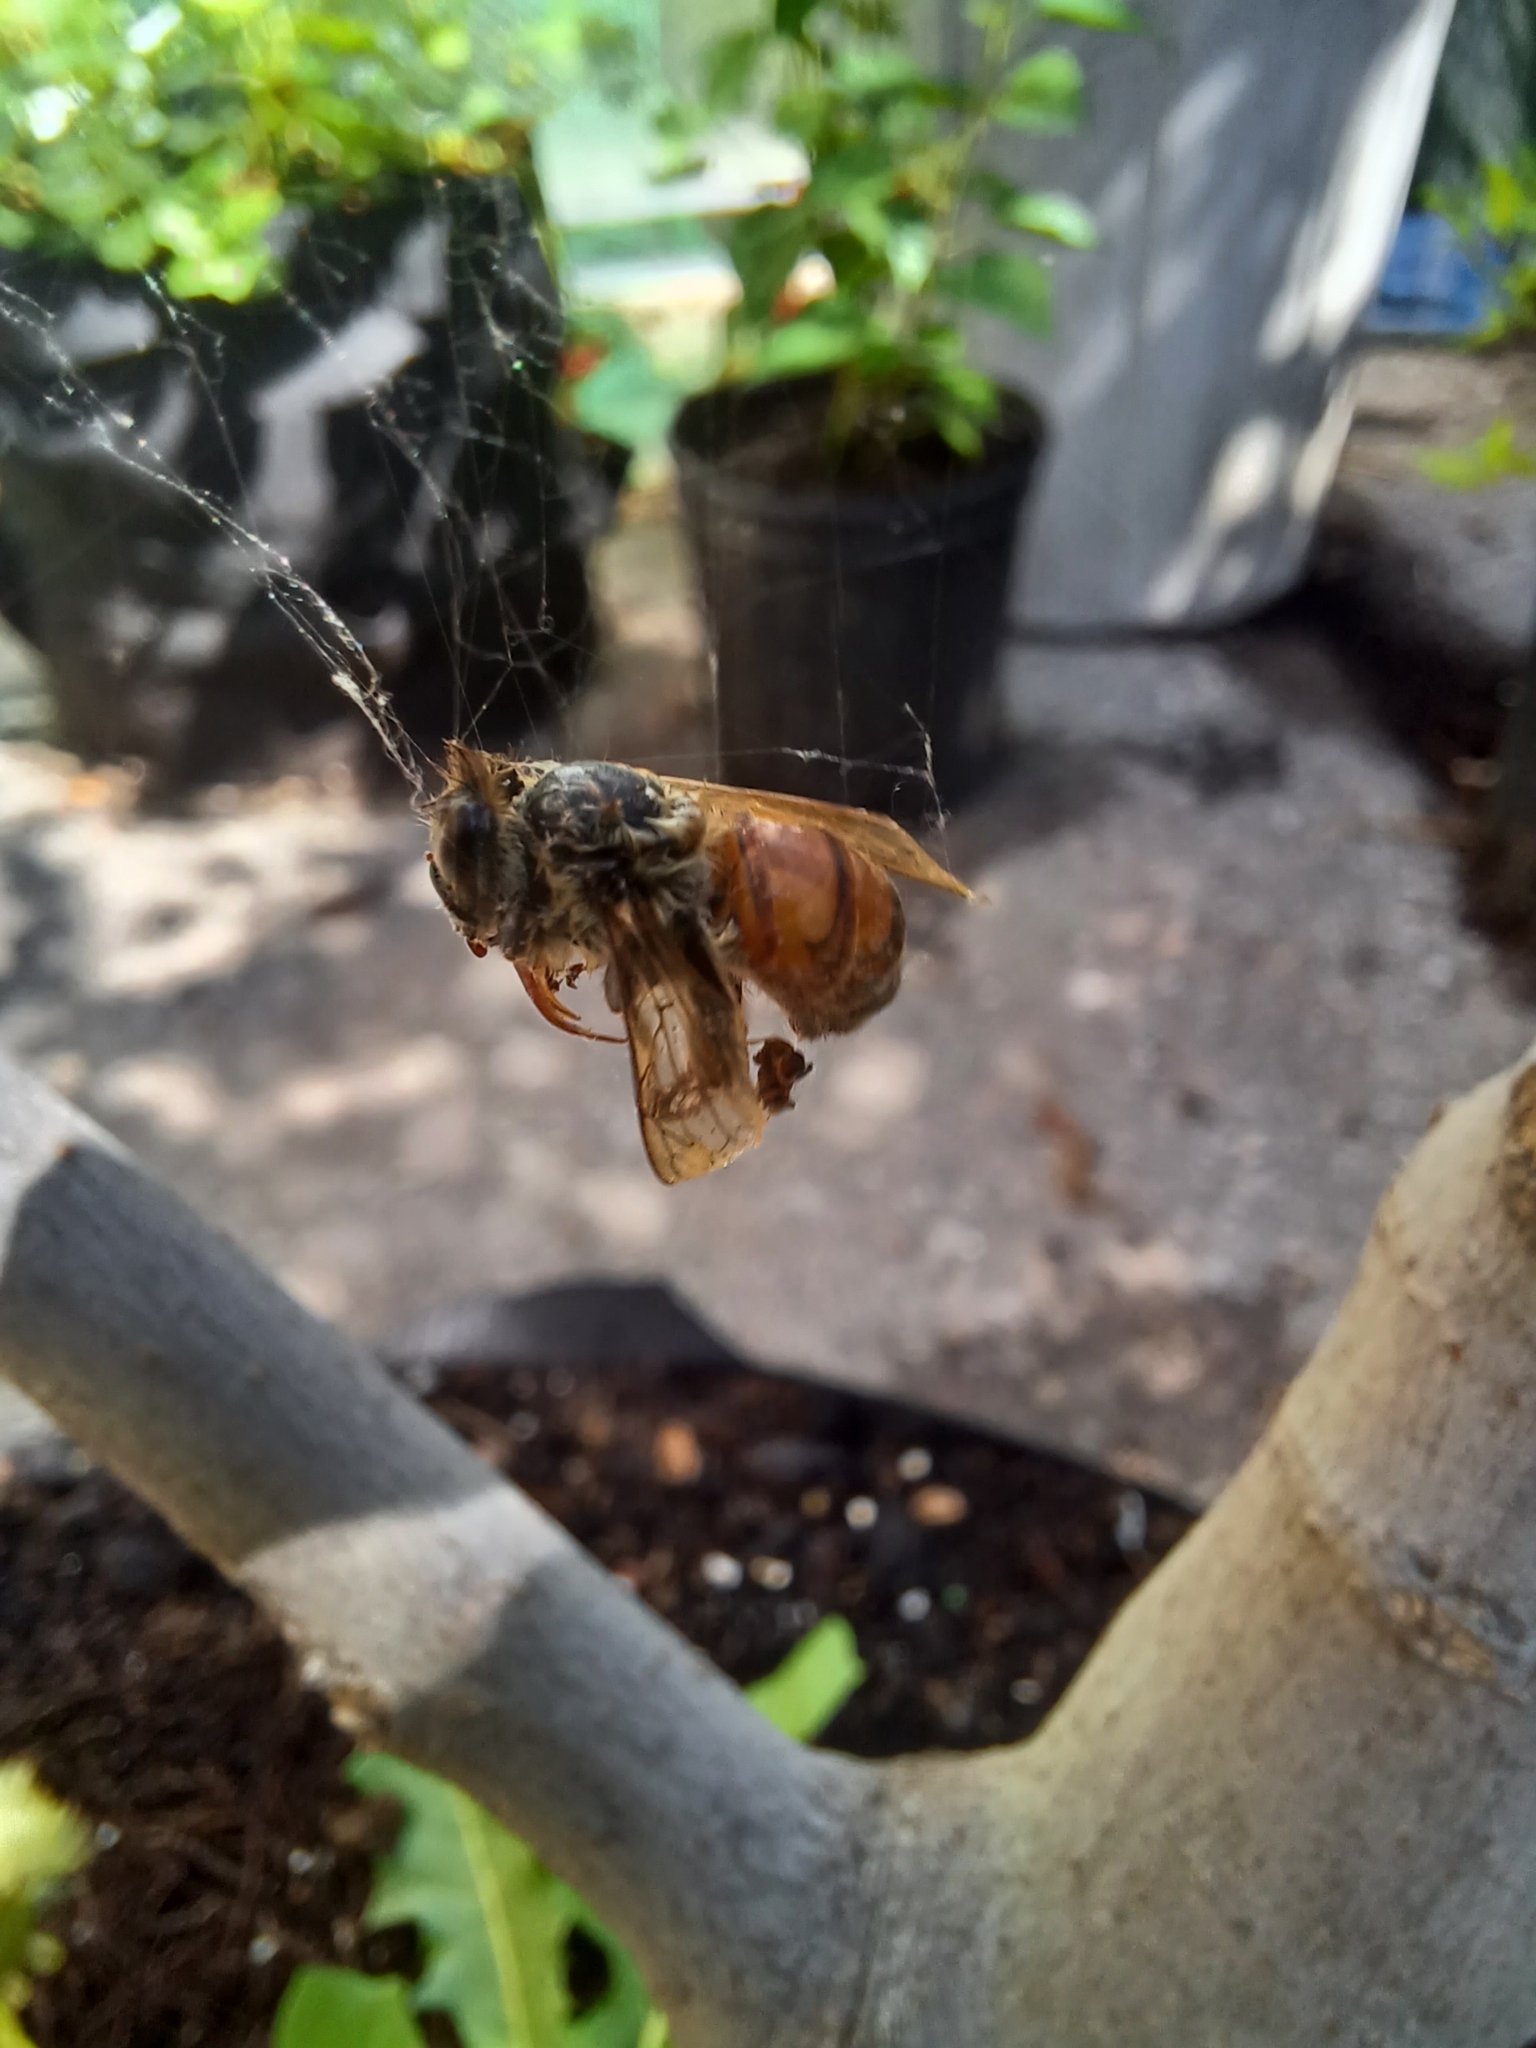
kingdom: Animalia
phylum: Arthropoda
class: Insecta
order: Hymenoptera
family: Apidae
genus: Apis
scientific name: Apis mellifera
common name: Honey bee
